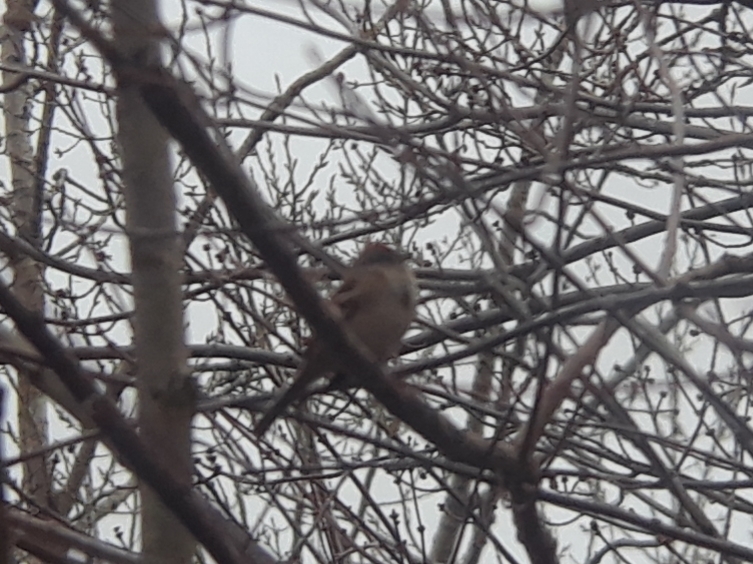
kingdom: Animalia
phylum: Chordata
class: Aves
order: Passeriformes
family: Passerellidae
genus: Spizelloides
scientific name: Spizelloides arborea
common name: American tree sparrow
